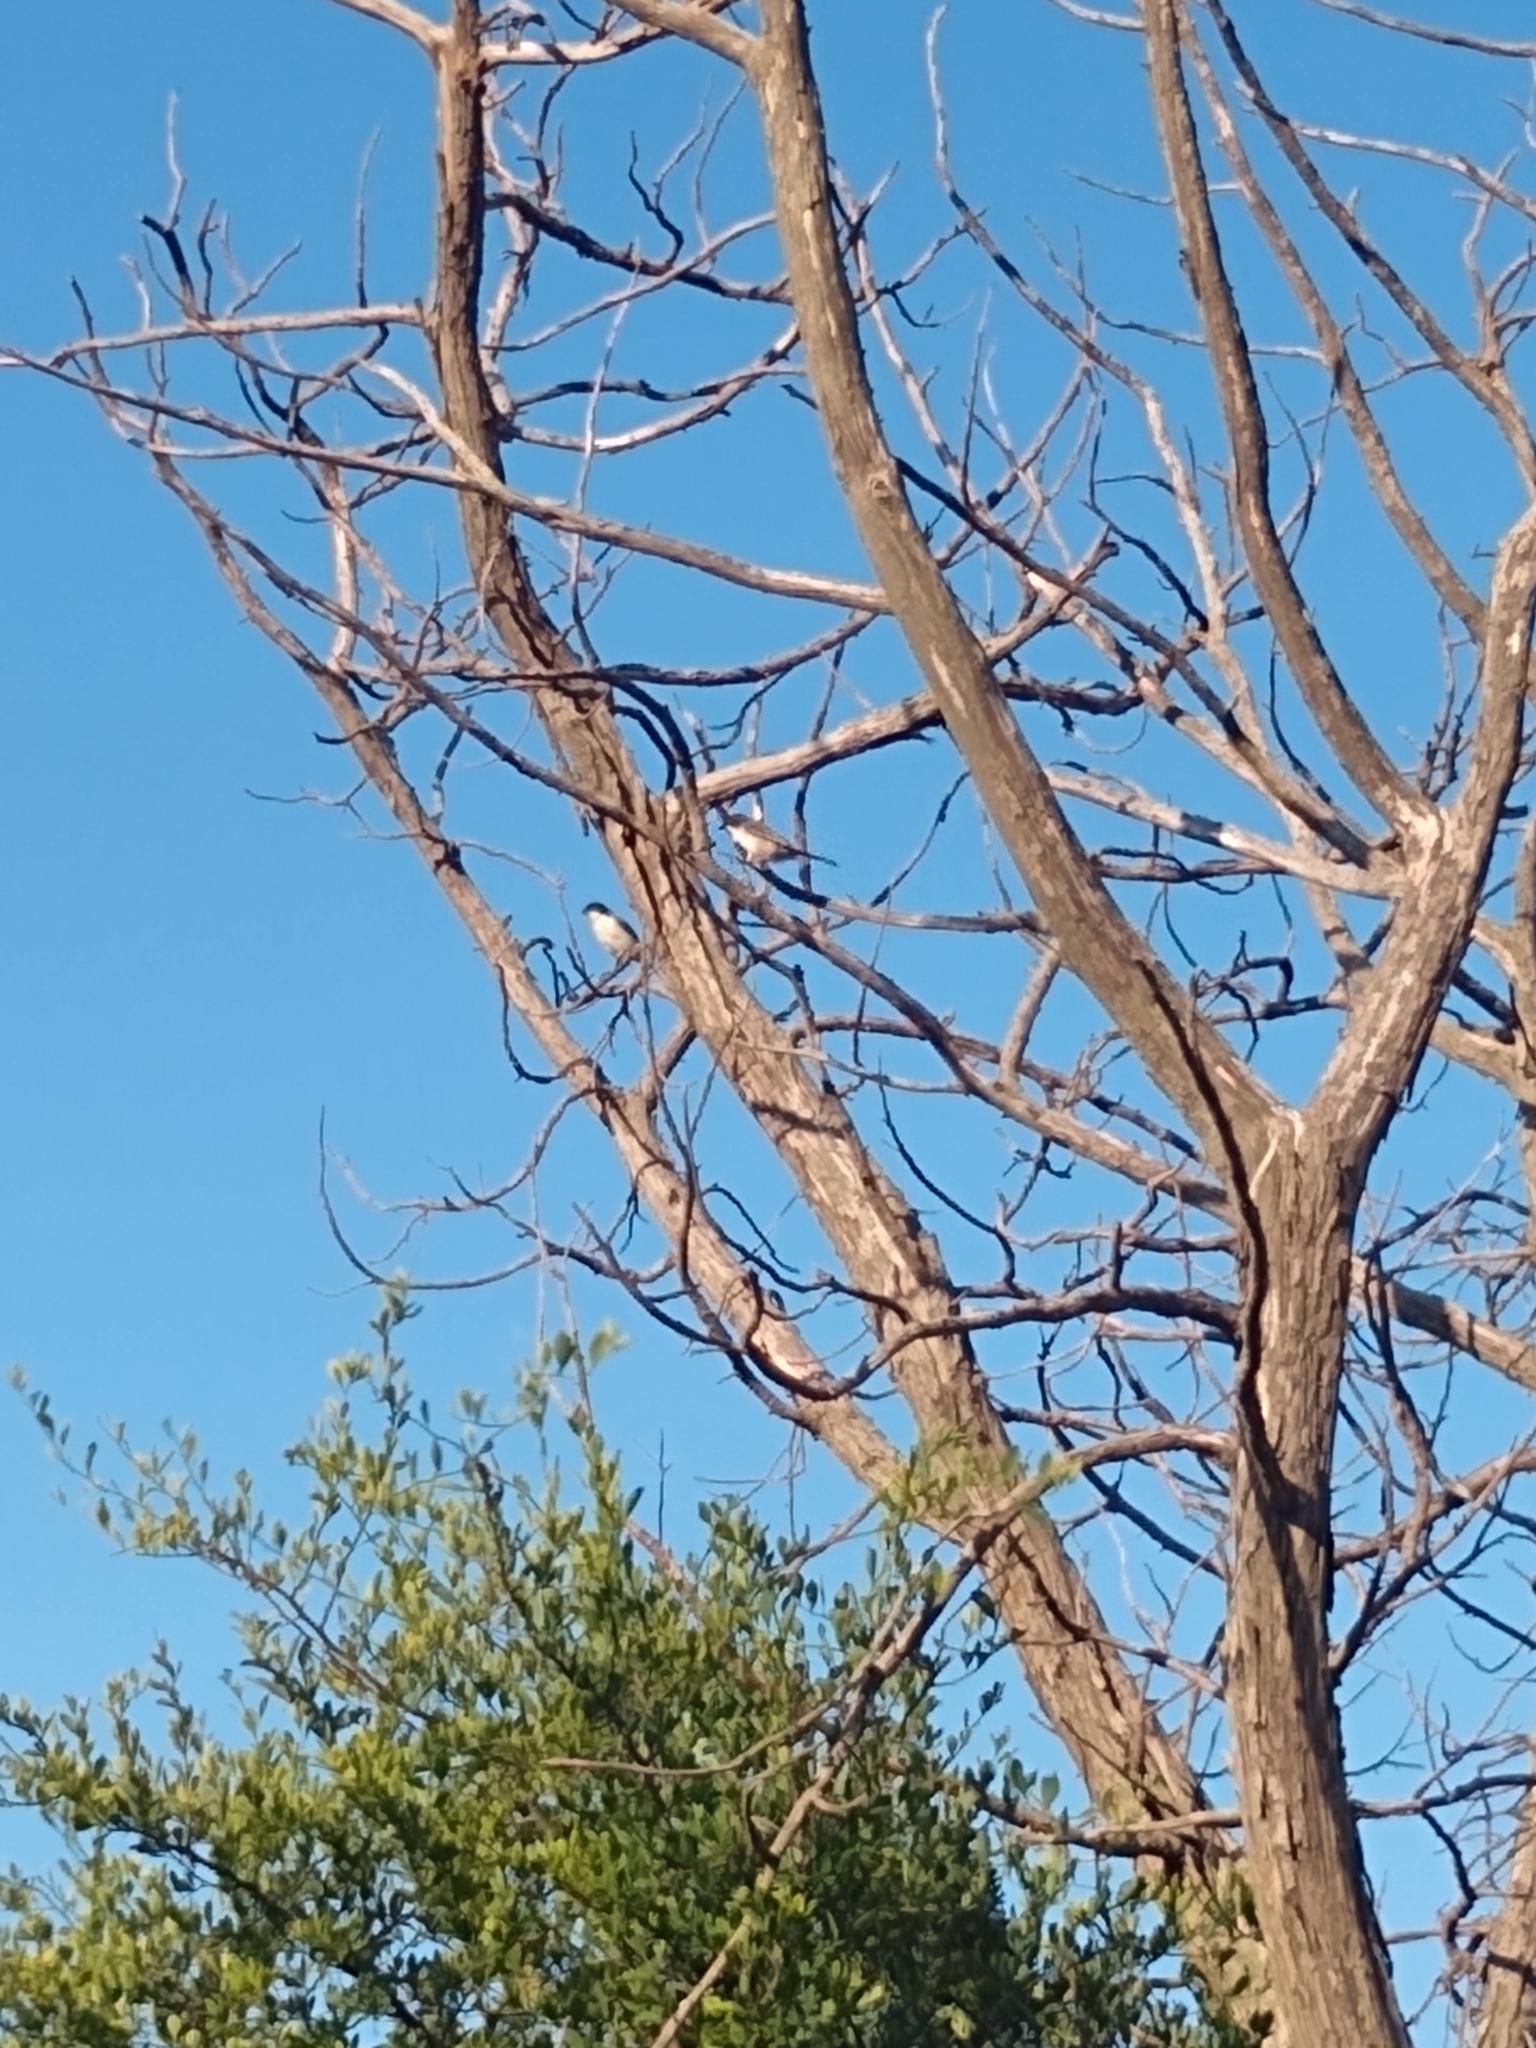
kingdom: Animalia
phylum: Chordata
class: Aves
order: Passeriformes
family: Thraupidae
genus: Microspingus
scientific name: Microspingus melanoleucus
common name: Black-capped warbling-finch
